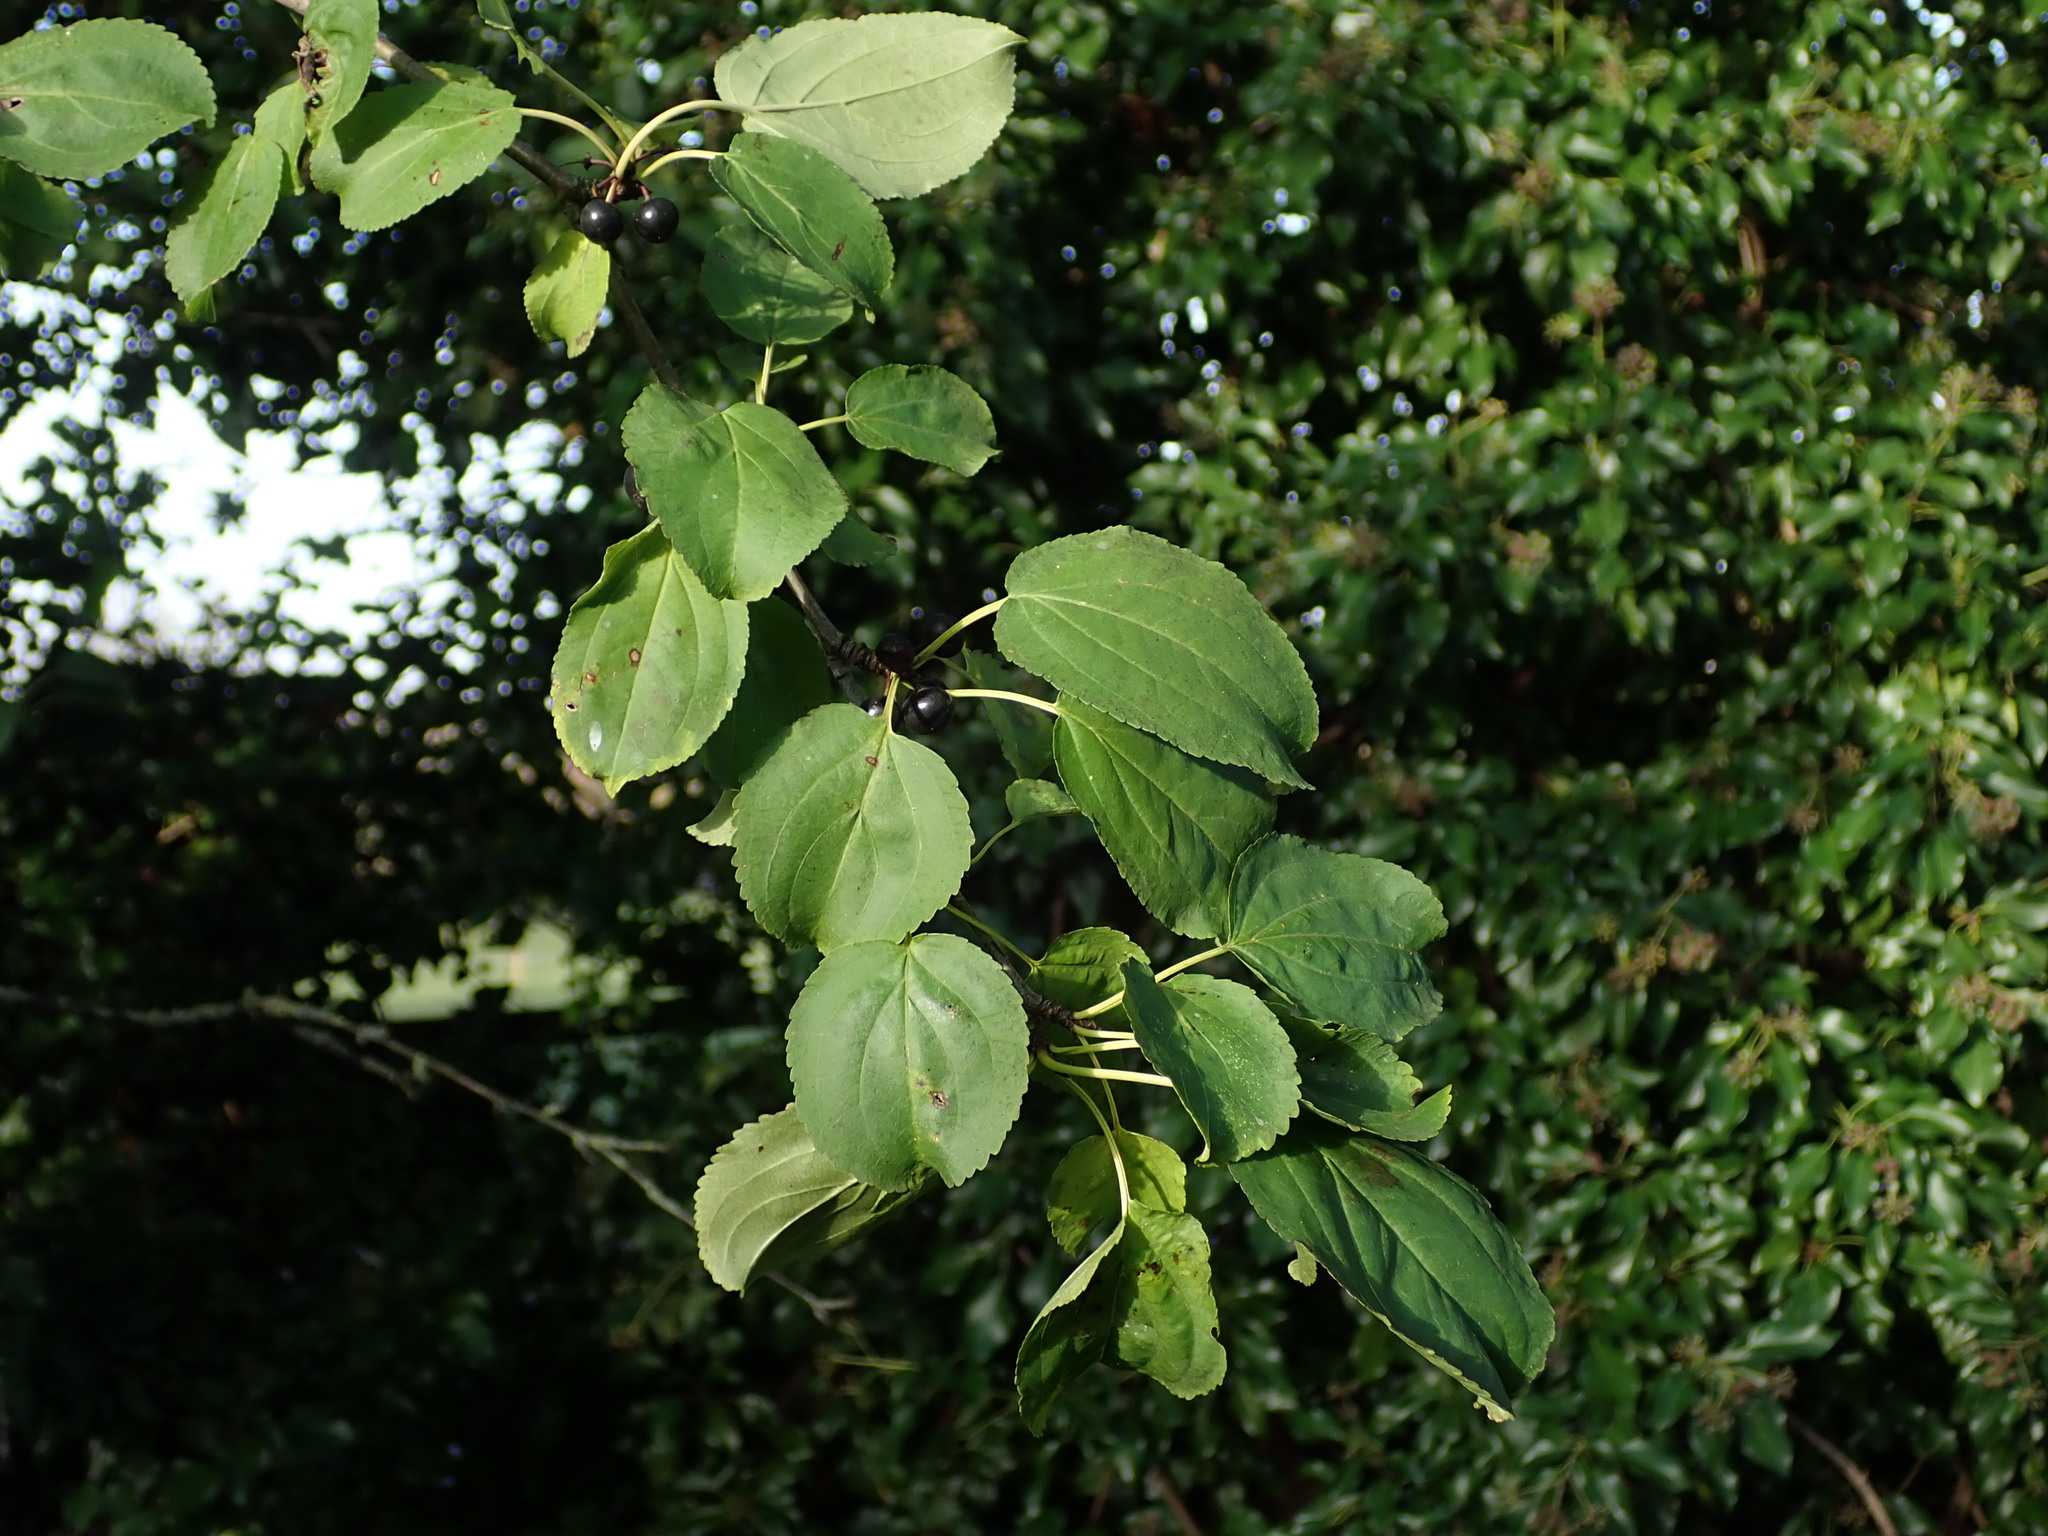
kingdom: Plantae
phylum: Tracheophyta
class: Magnoliopsida
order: Rosales
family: Rhamnaceae
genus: Rhamnus
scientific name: Rhamnus cathartica
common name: Common buckthorn
